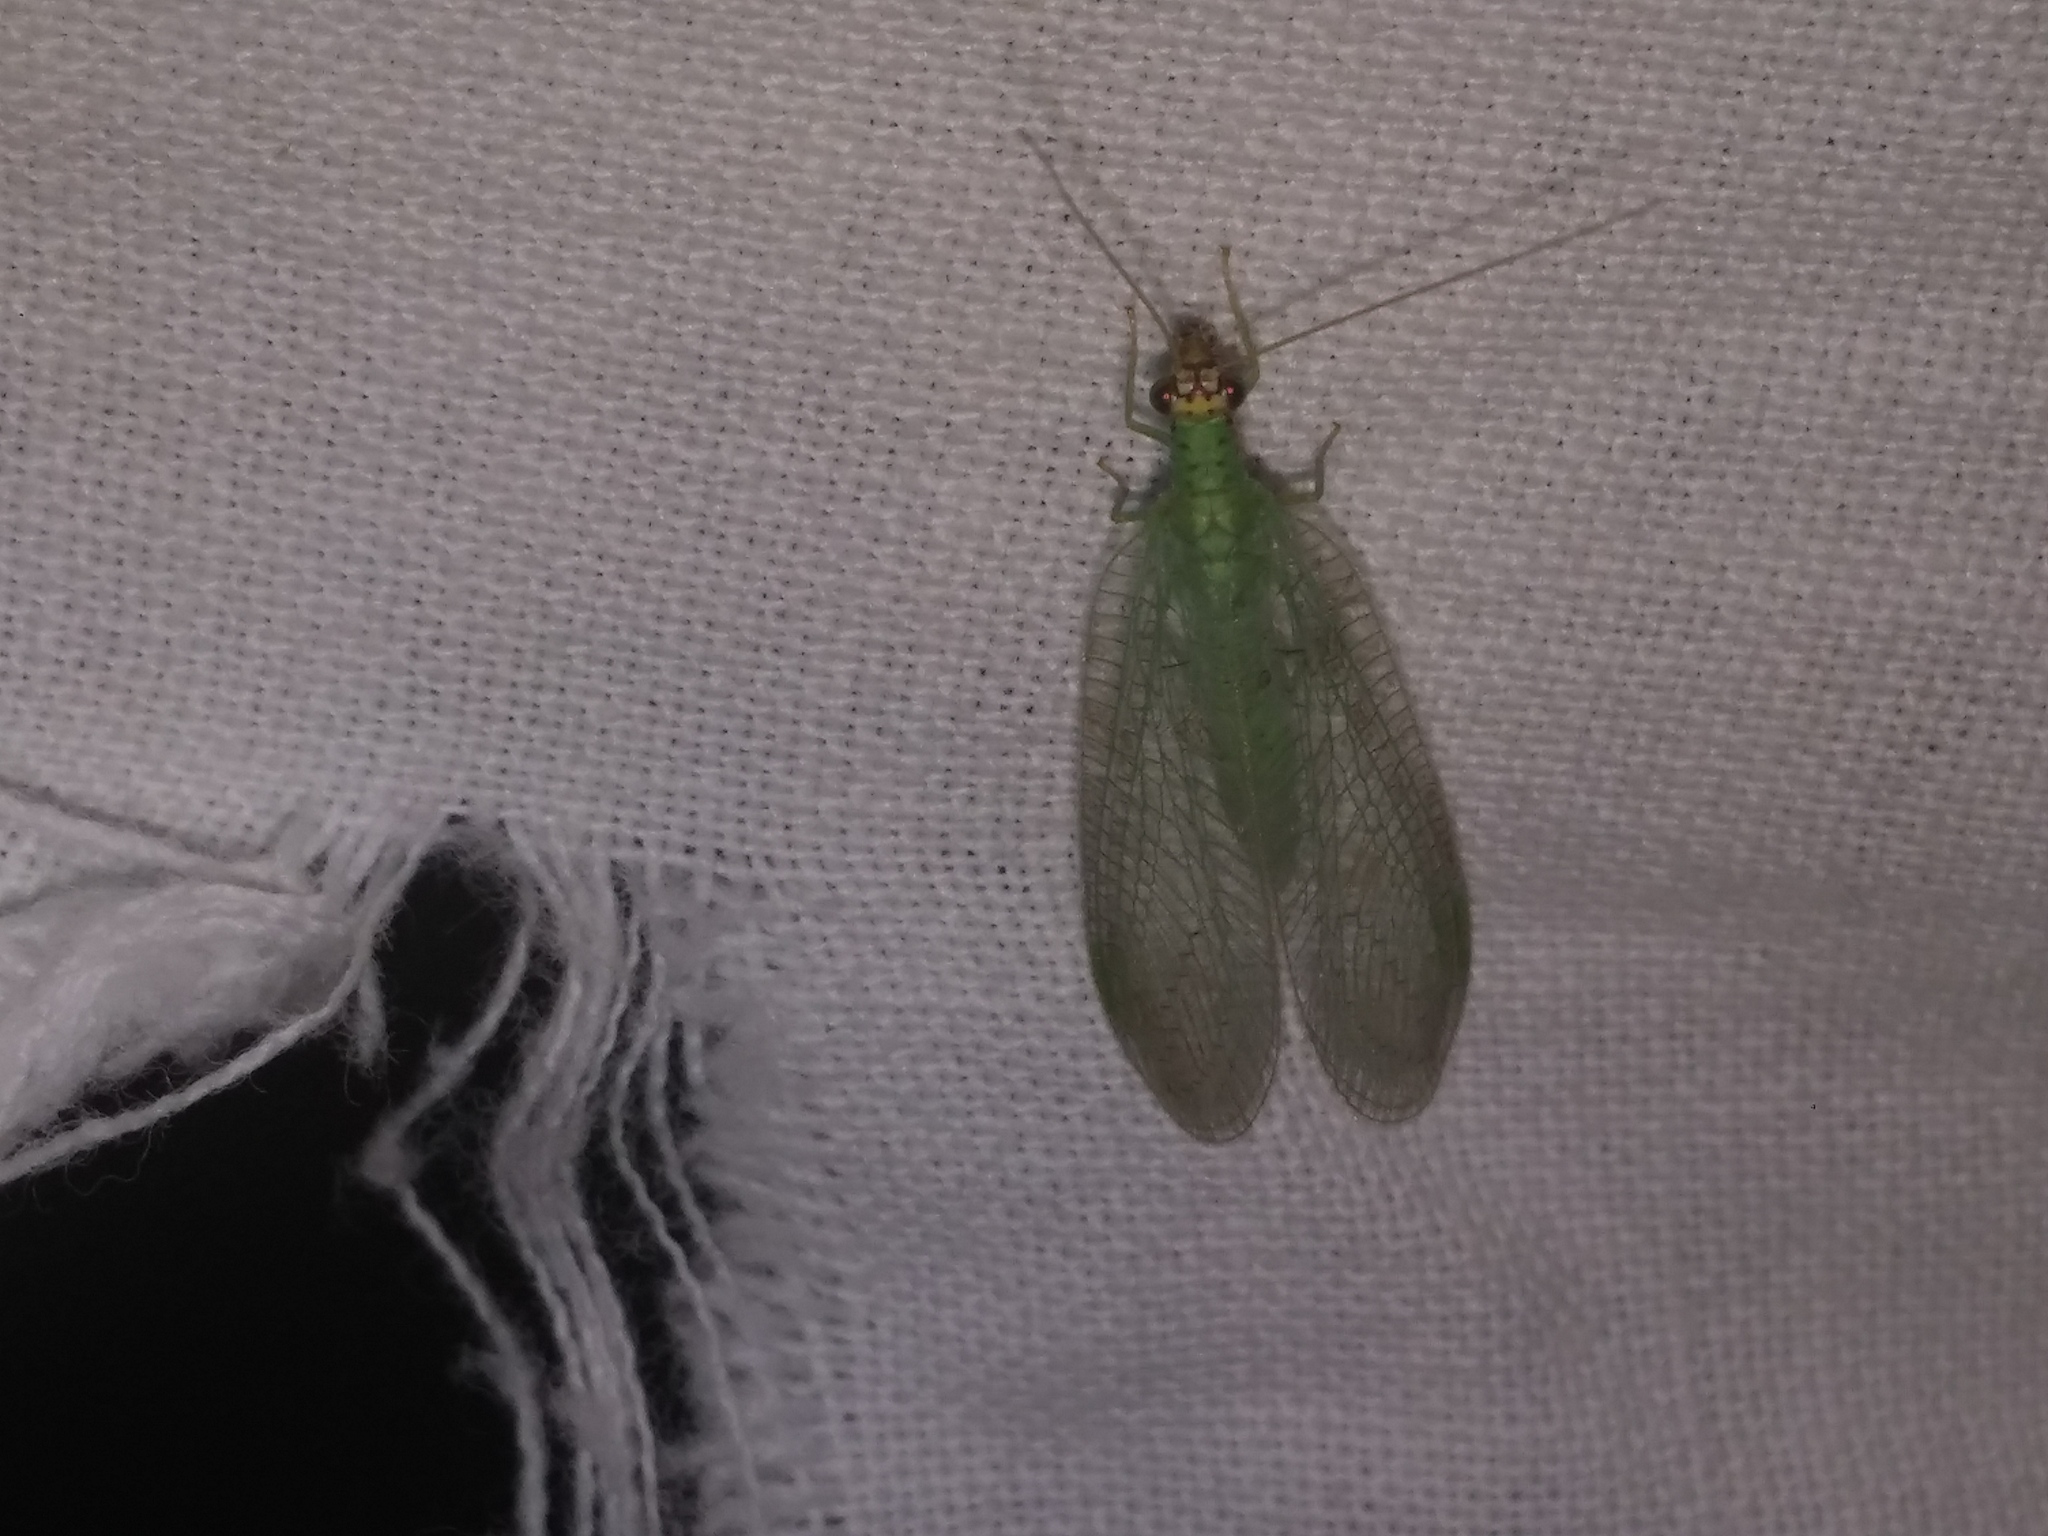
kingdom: Animalia
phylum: Arthropoda
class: Insecta
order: Neuroptera
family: Chrysopidae
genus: Chrysopa
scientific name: Chrysopa oculata
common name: Golden-eyed lacewing
